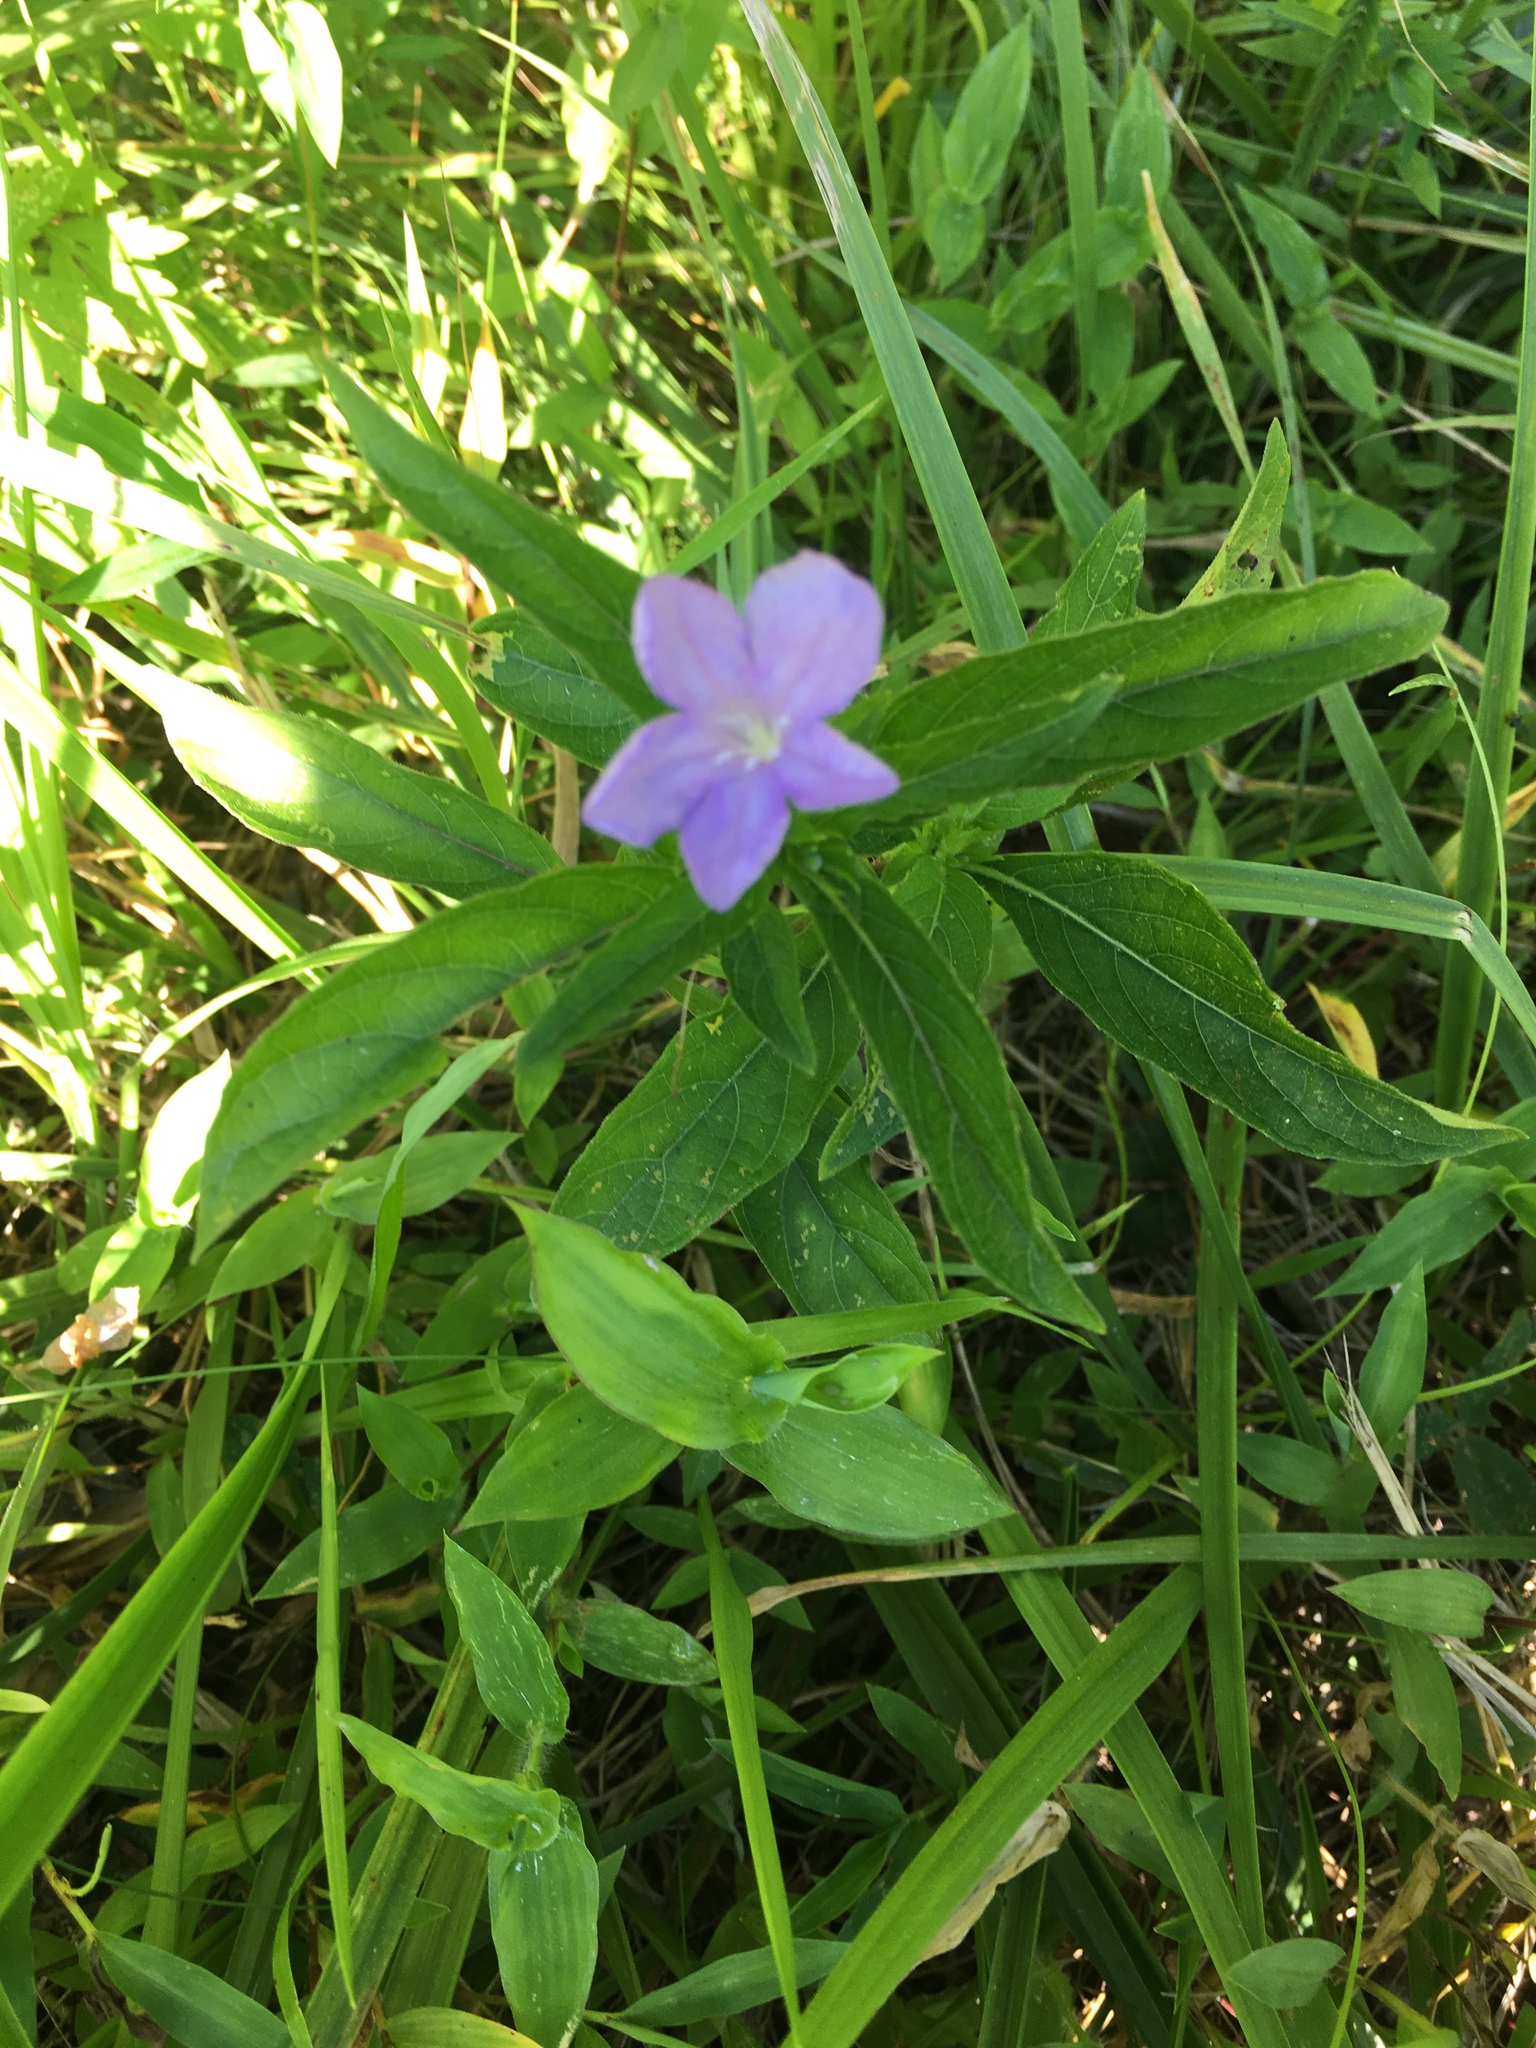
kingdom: Plantae
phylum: Tracheophyta
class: Magnoliopsida
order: Lamiales
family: Acanthaceae
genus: Ruellia
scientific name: Ruellia caroliniensis
